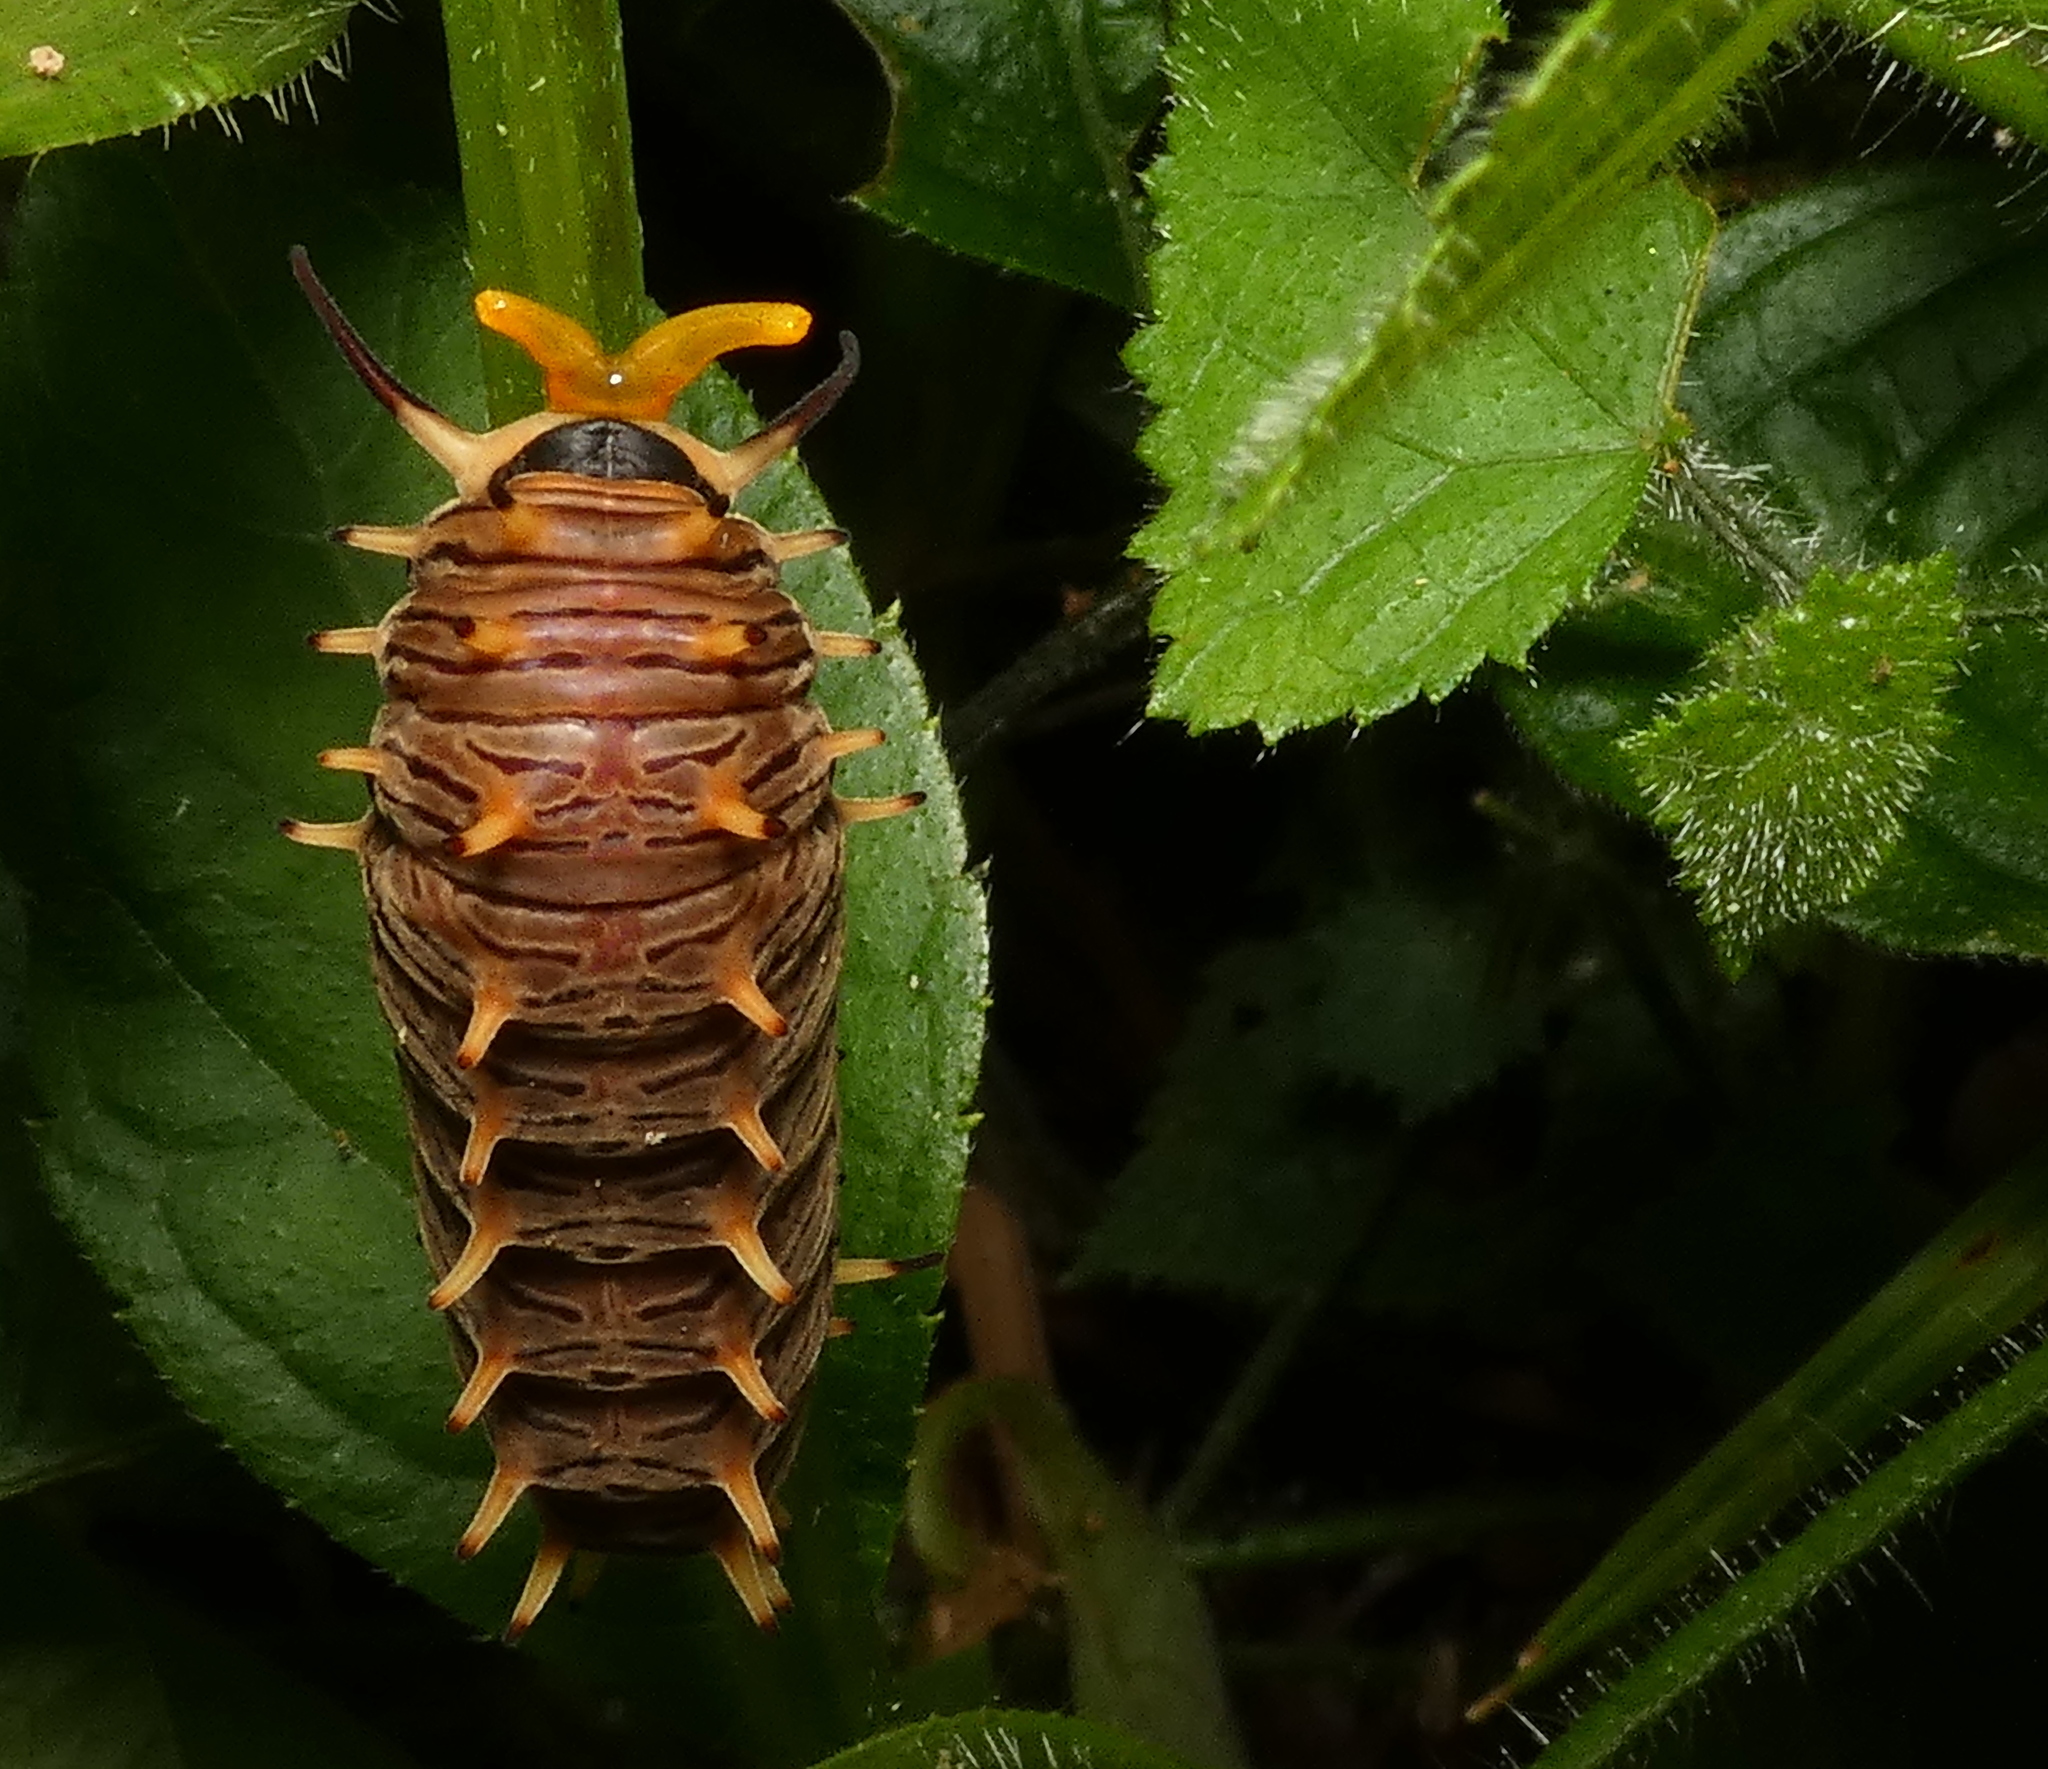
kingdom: Animalia
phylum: Arthropoda
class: Insecta
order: Lepidoptera
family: Papilionidae
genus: Battus
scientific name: Battus polydamas
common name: Polydamas swallowtail
